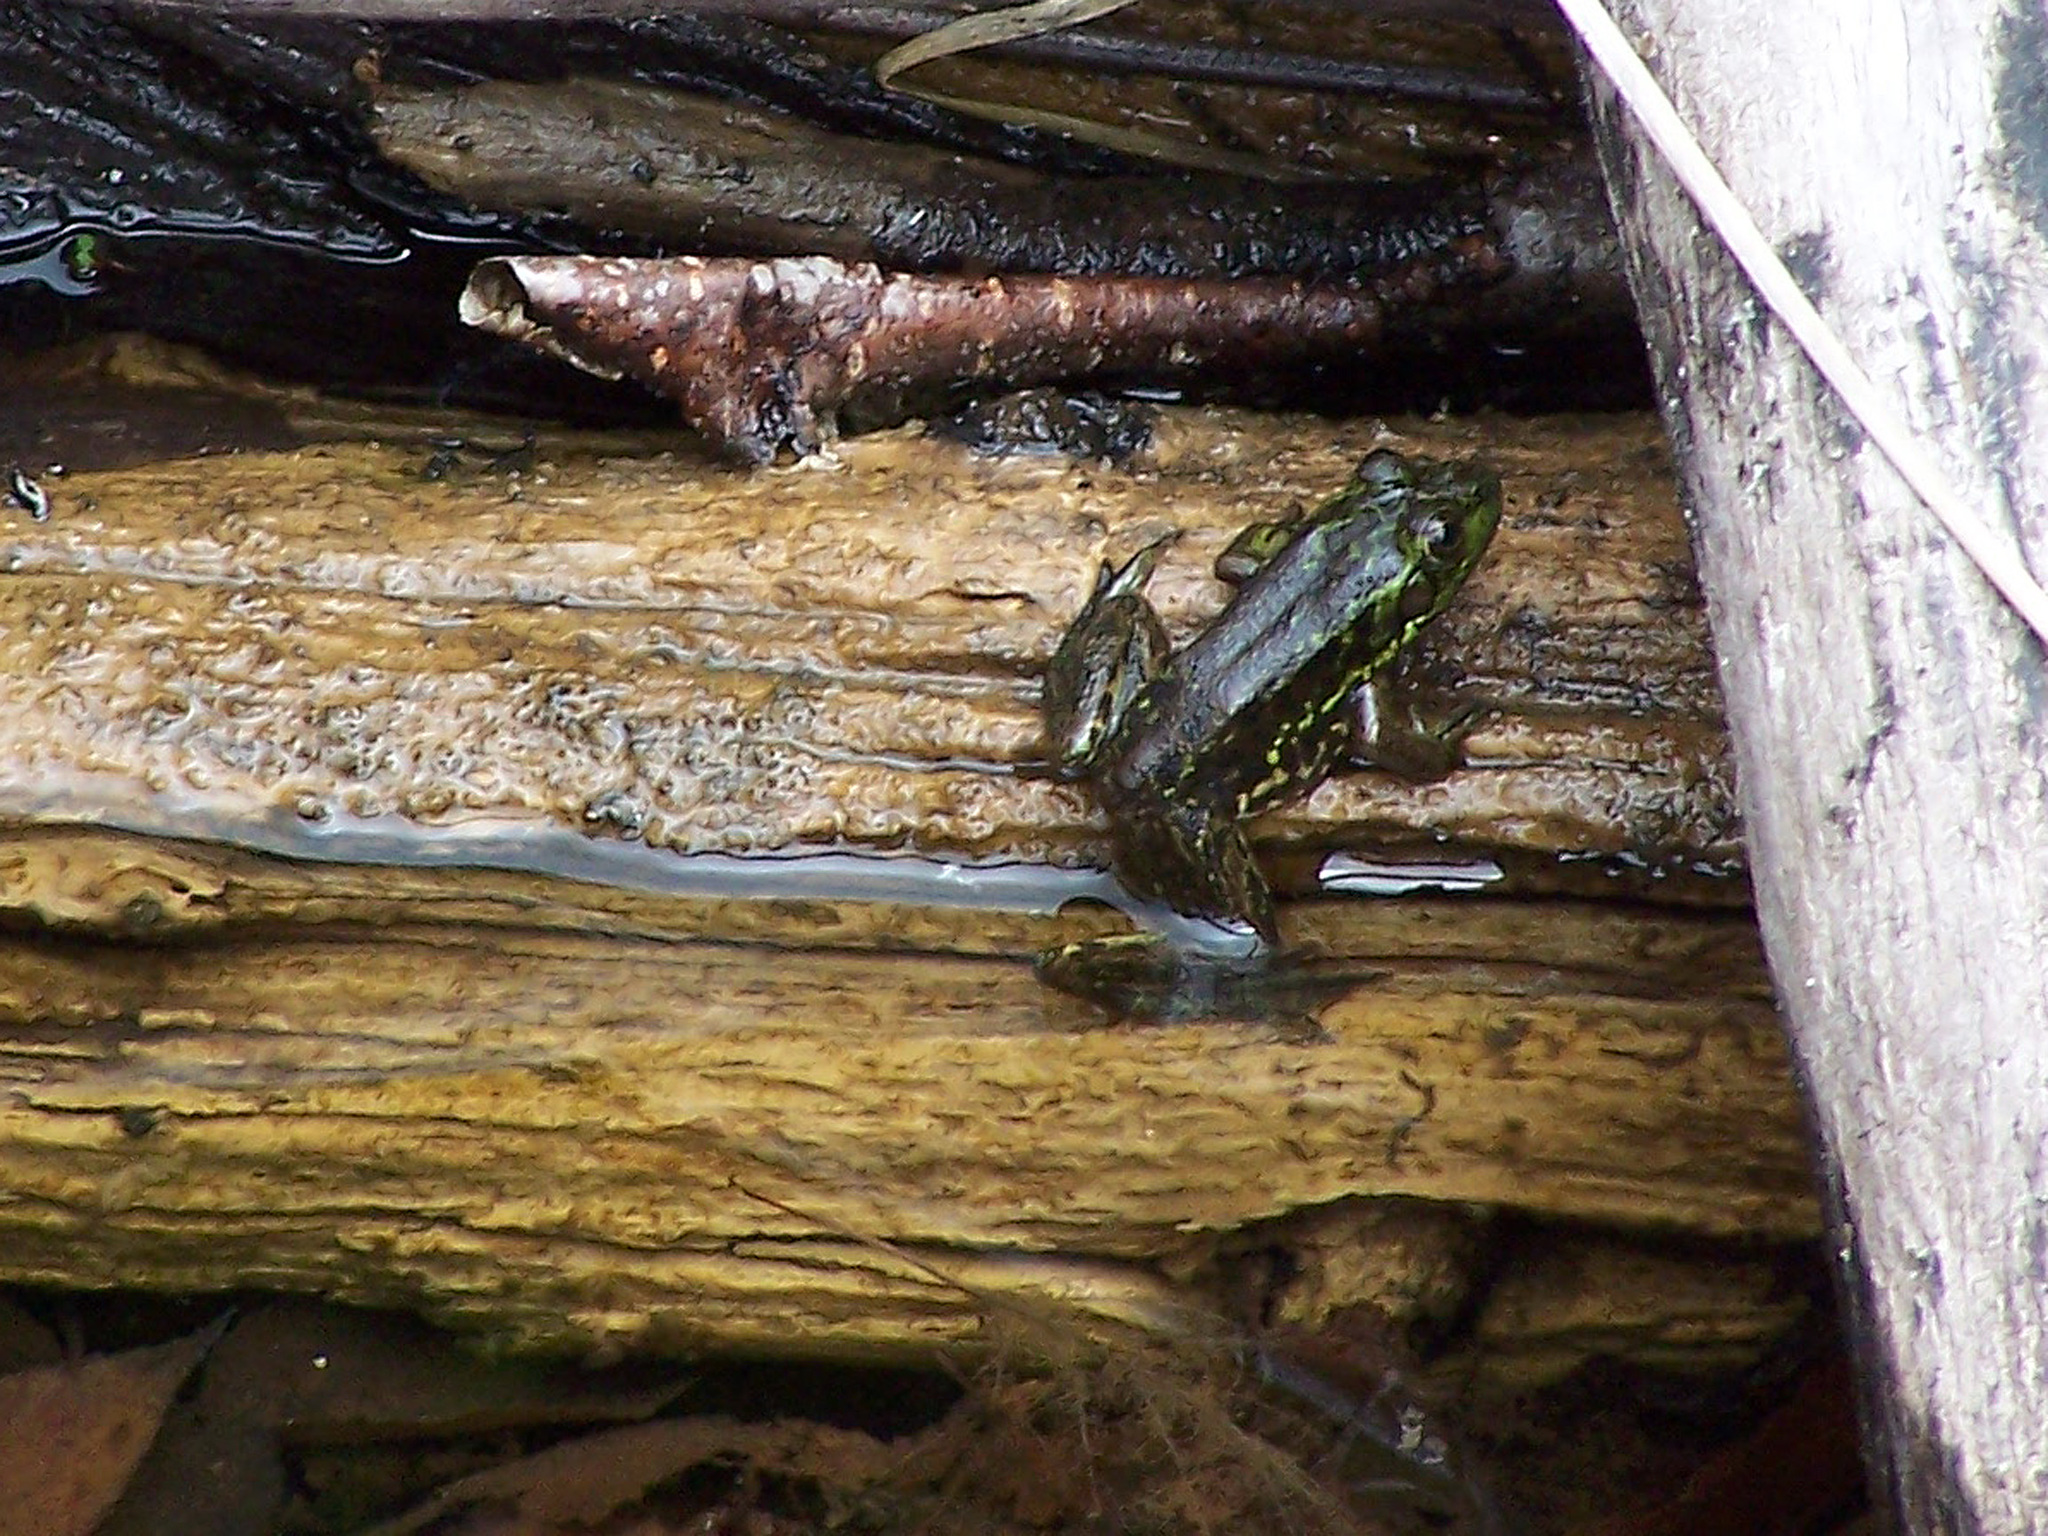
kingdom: Animalia
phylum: Chordata
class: Amphibia
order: Anura
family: Ranidae
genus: Lithobates
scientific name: Lithobates septentrionalis
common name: Mink frog
